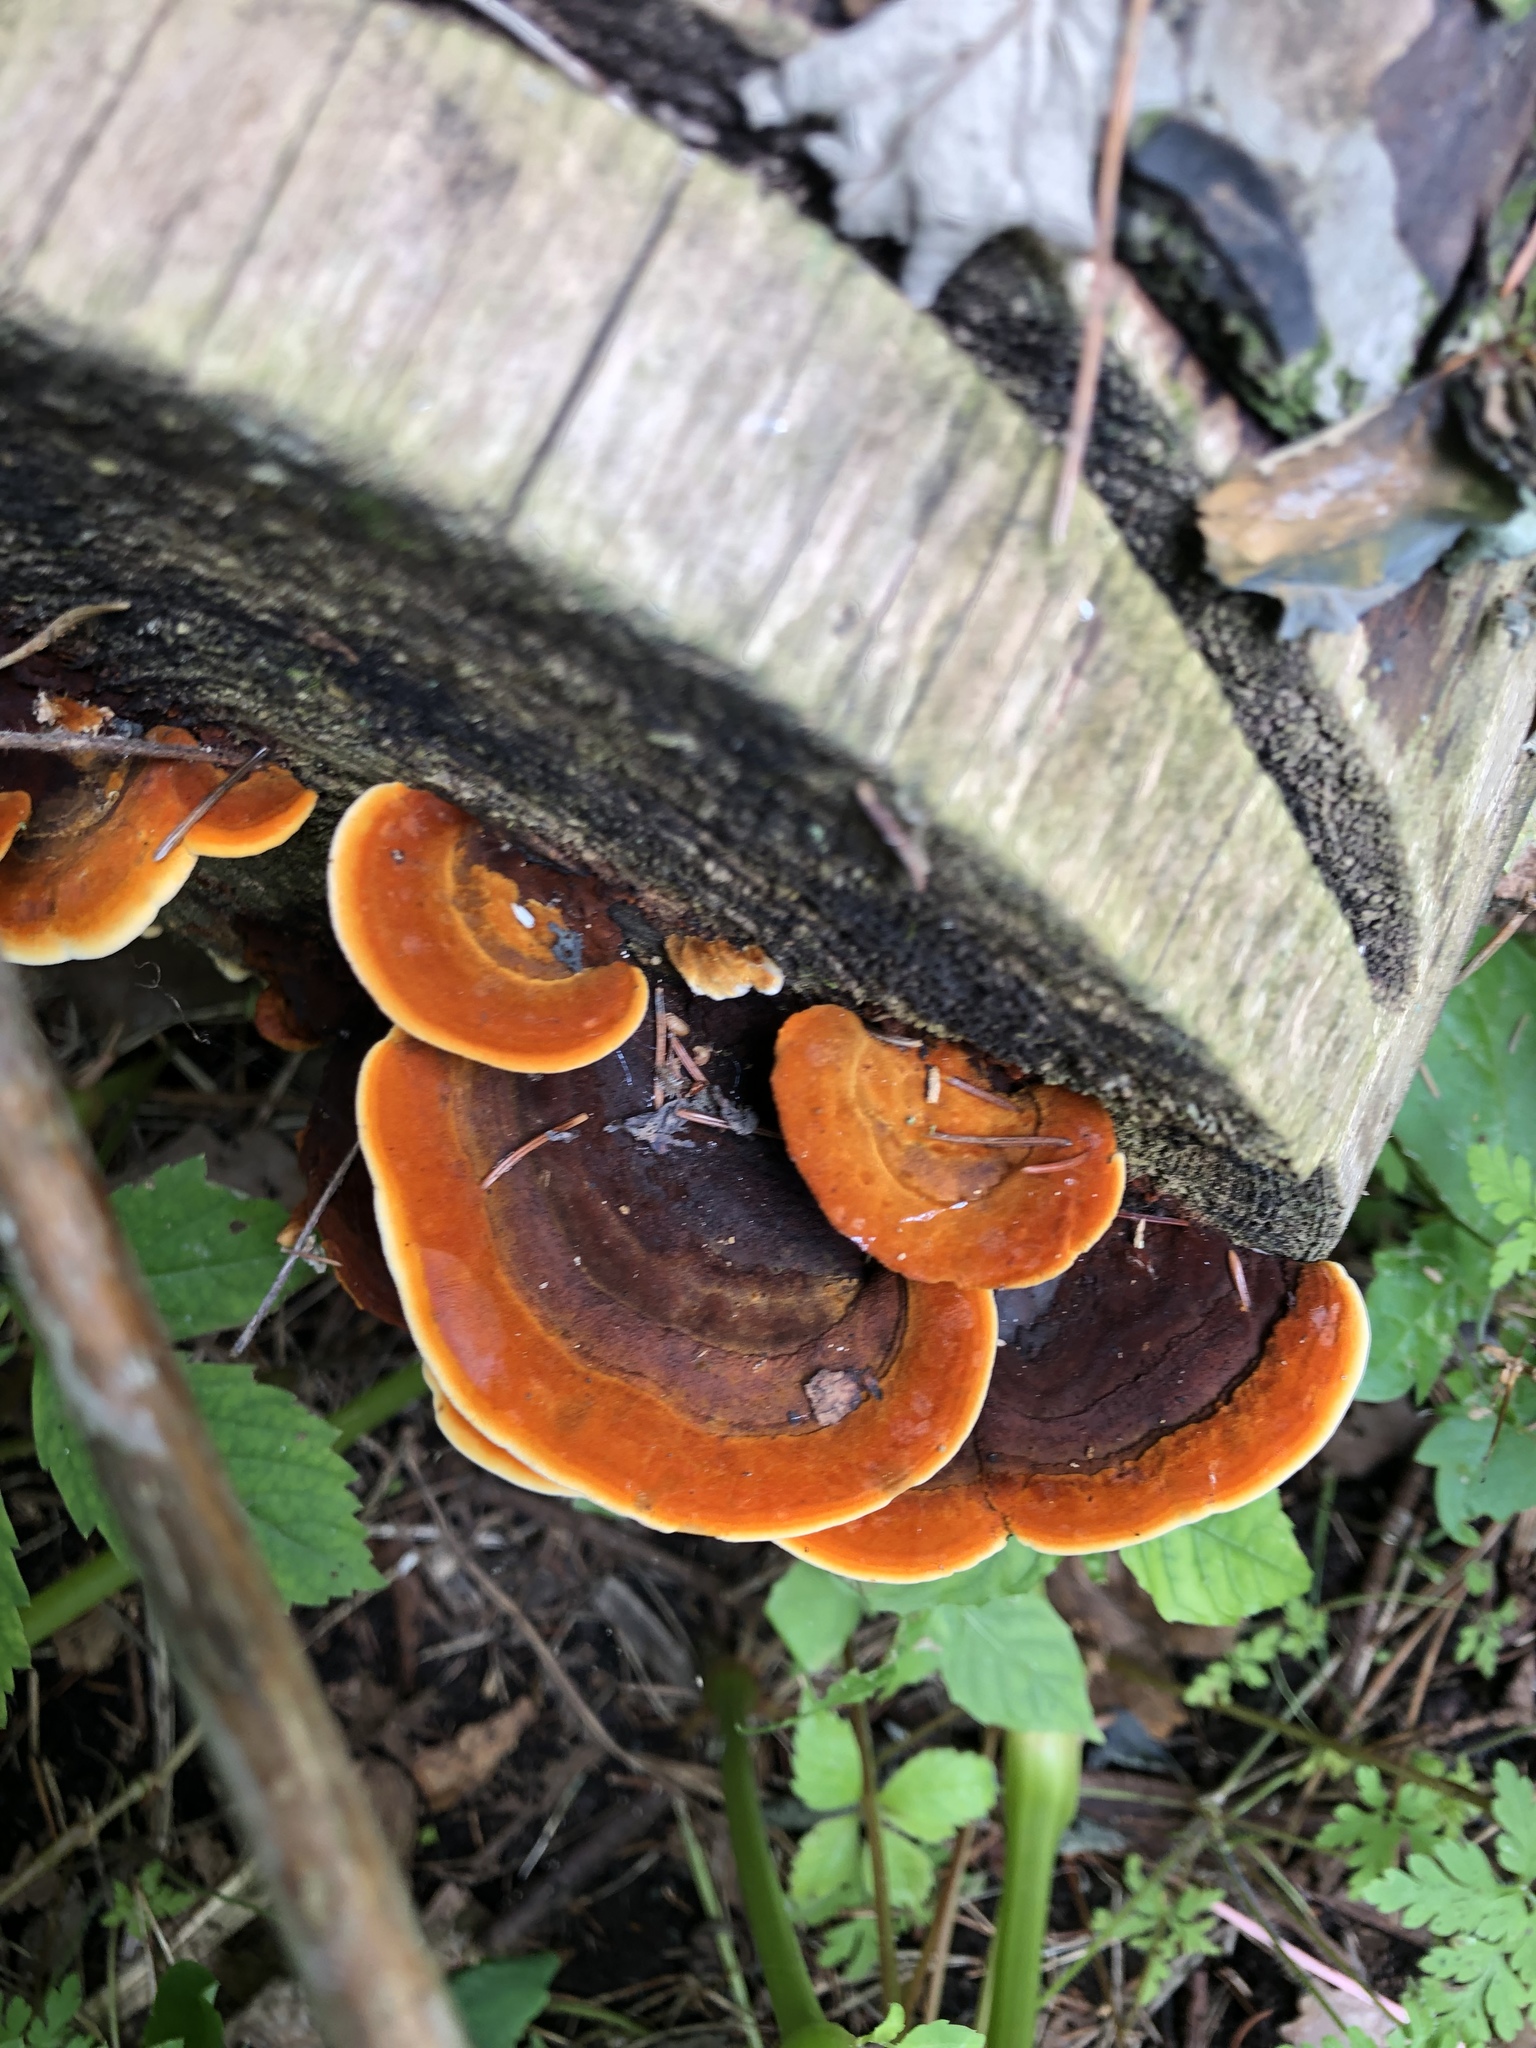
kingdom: Fungi
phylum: Basidiomycota
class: Agaricomycetes
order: Gloeophyllales
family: Gloeophyllaceae
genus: Gloeophyllum
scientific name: Gloeophyllum sepiarium
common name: Conifer mazegill
